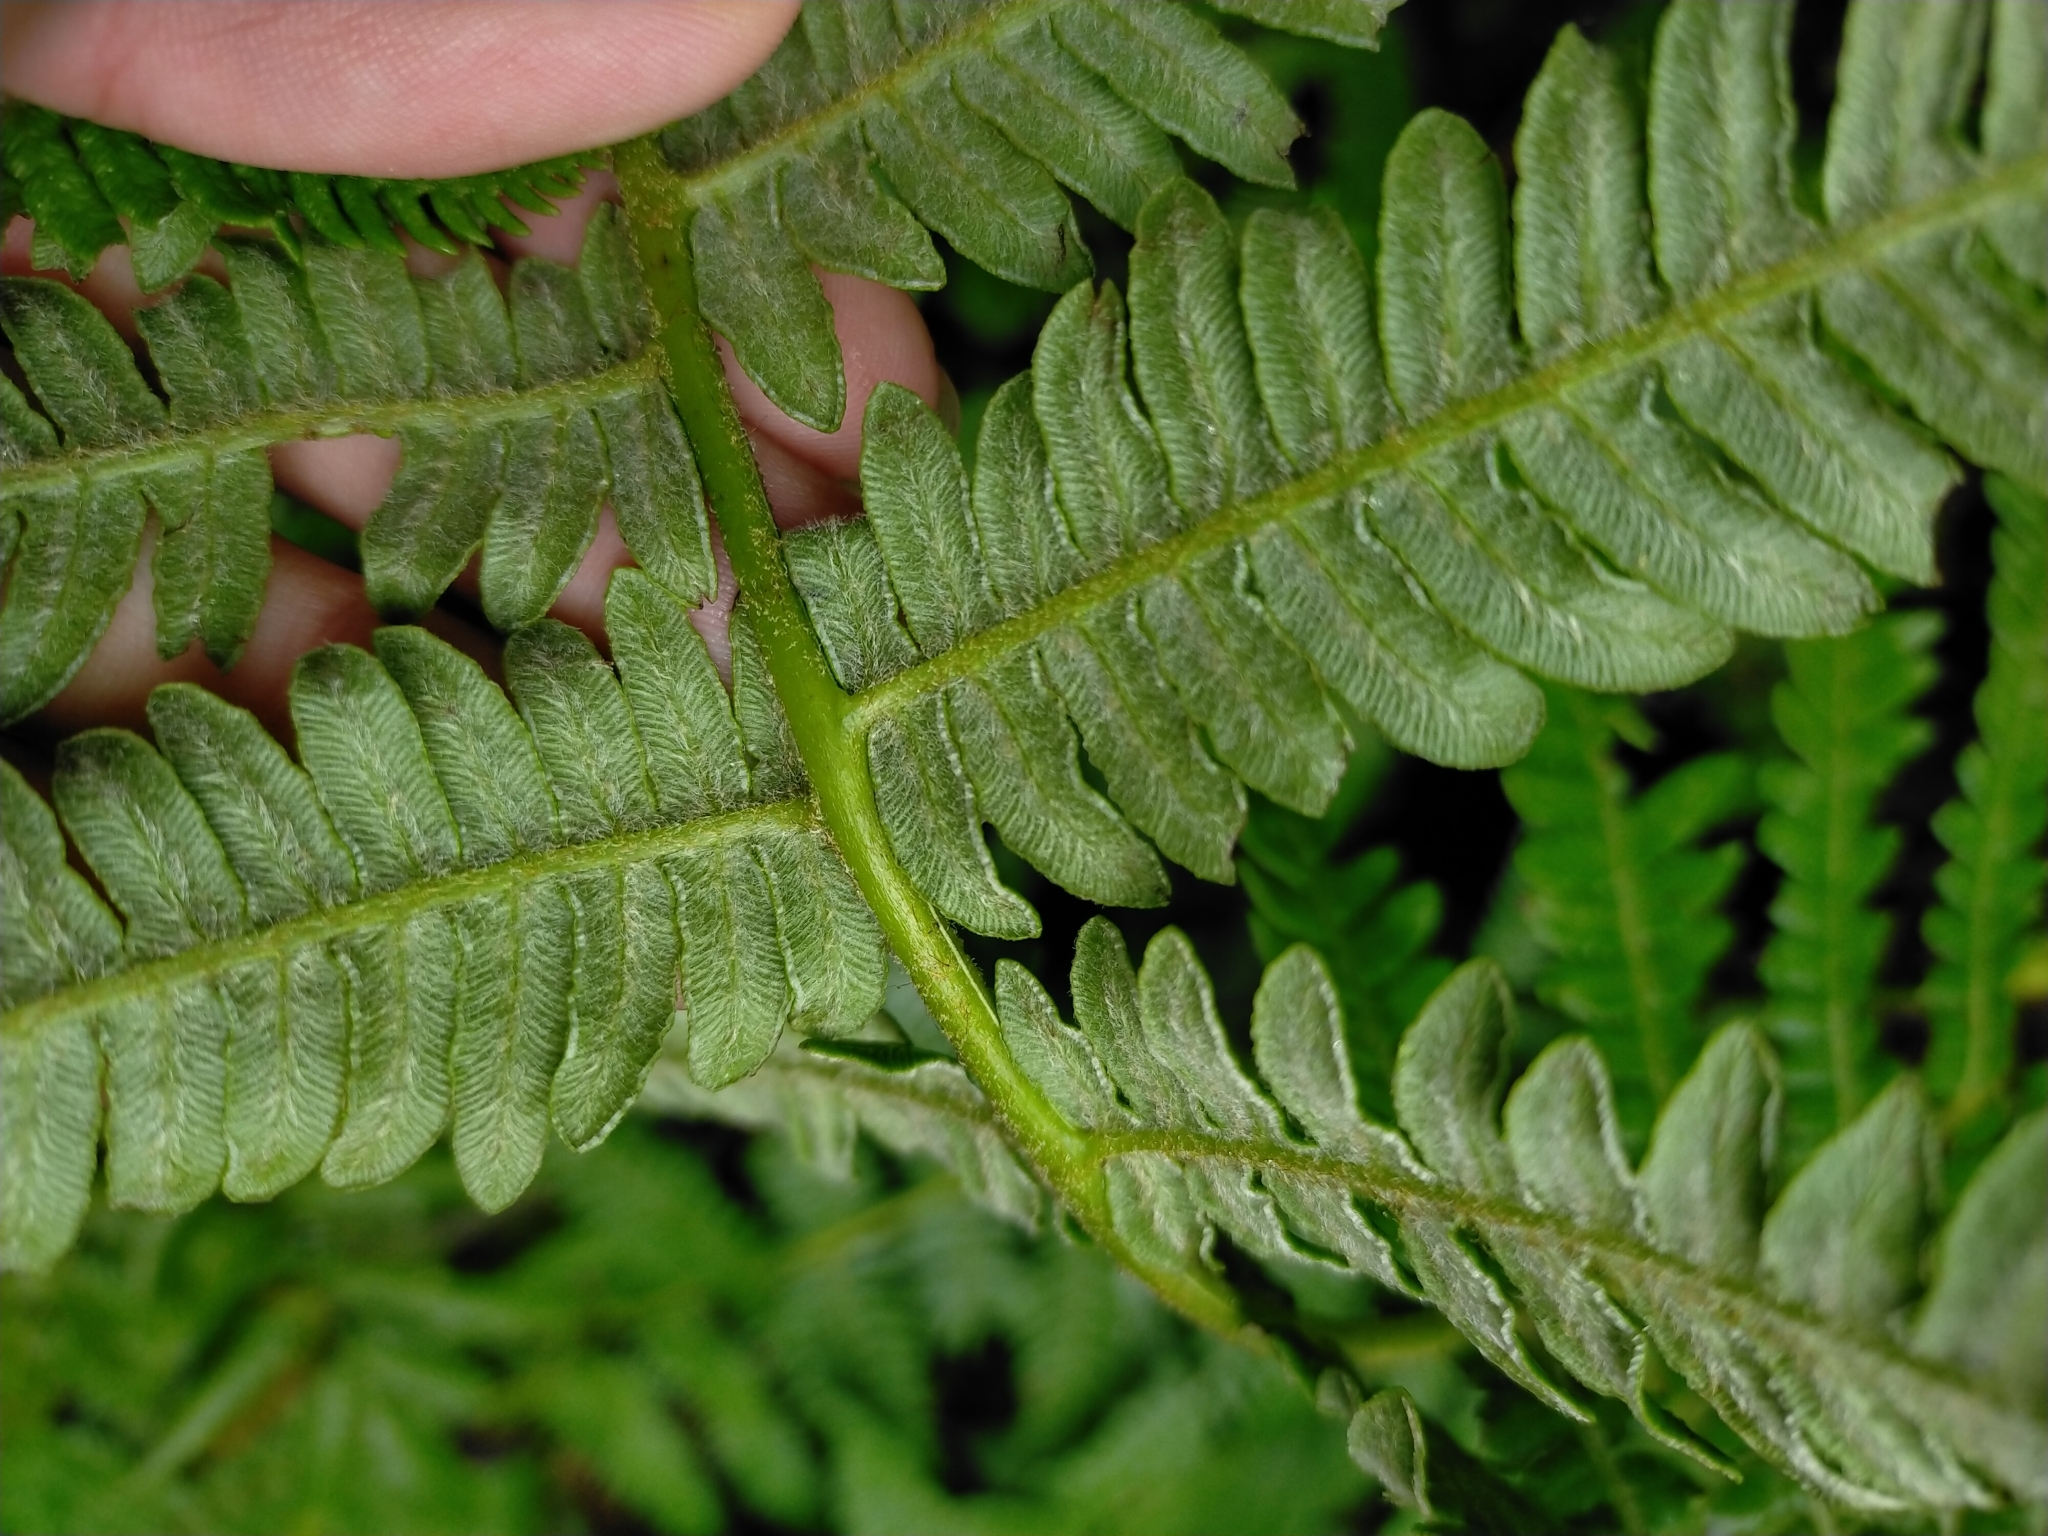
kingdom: Plantae
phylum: Tracheophyta
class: Polypodiopsida
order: Polypodiales
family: Dennstaedtiaceae
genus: Pteridium
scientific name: Pteridium aquilinum
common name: Bracken
